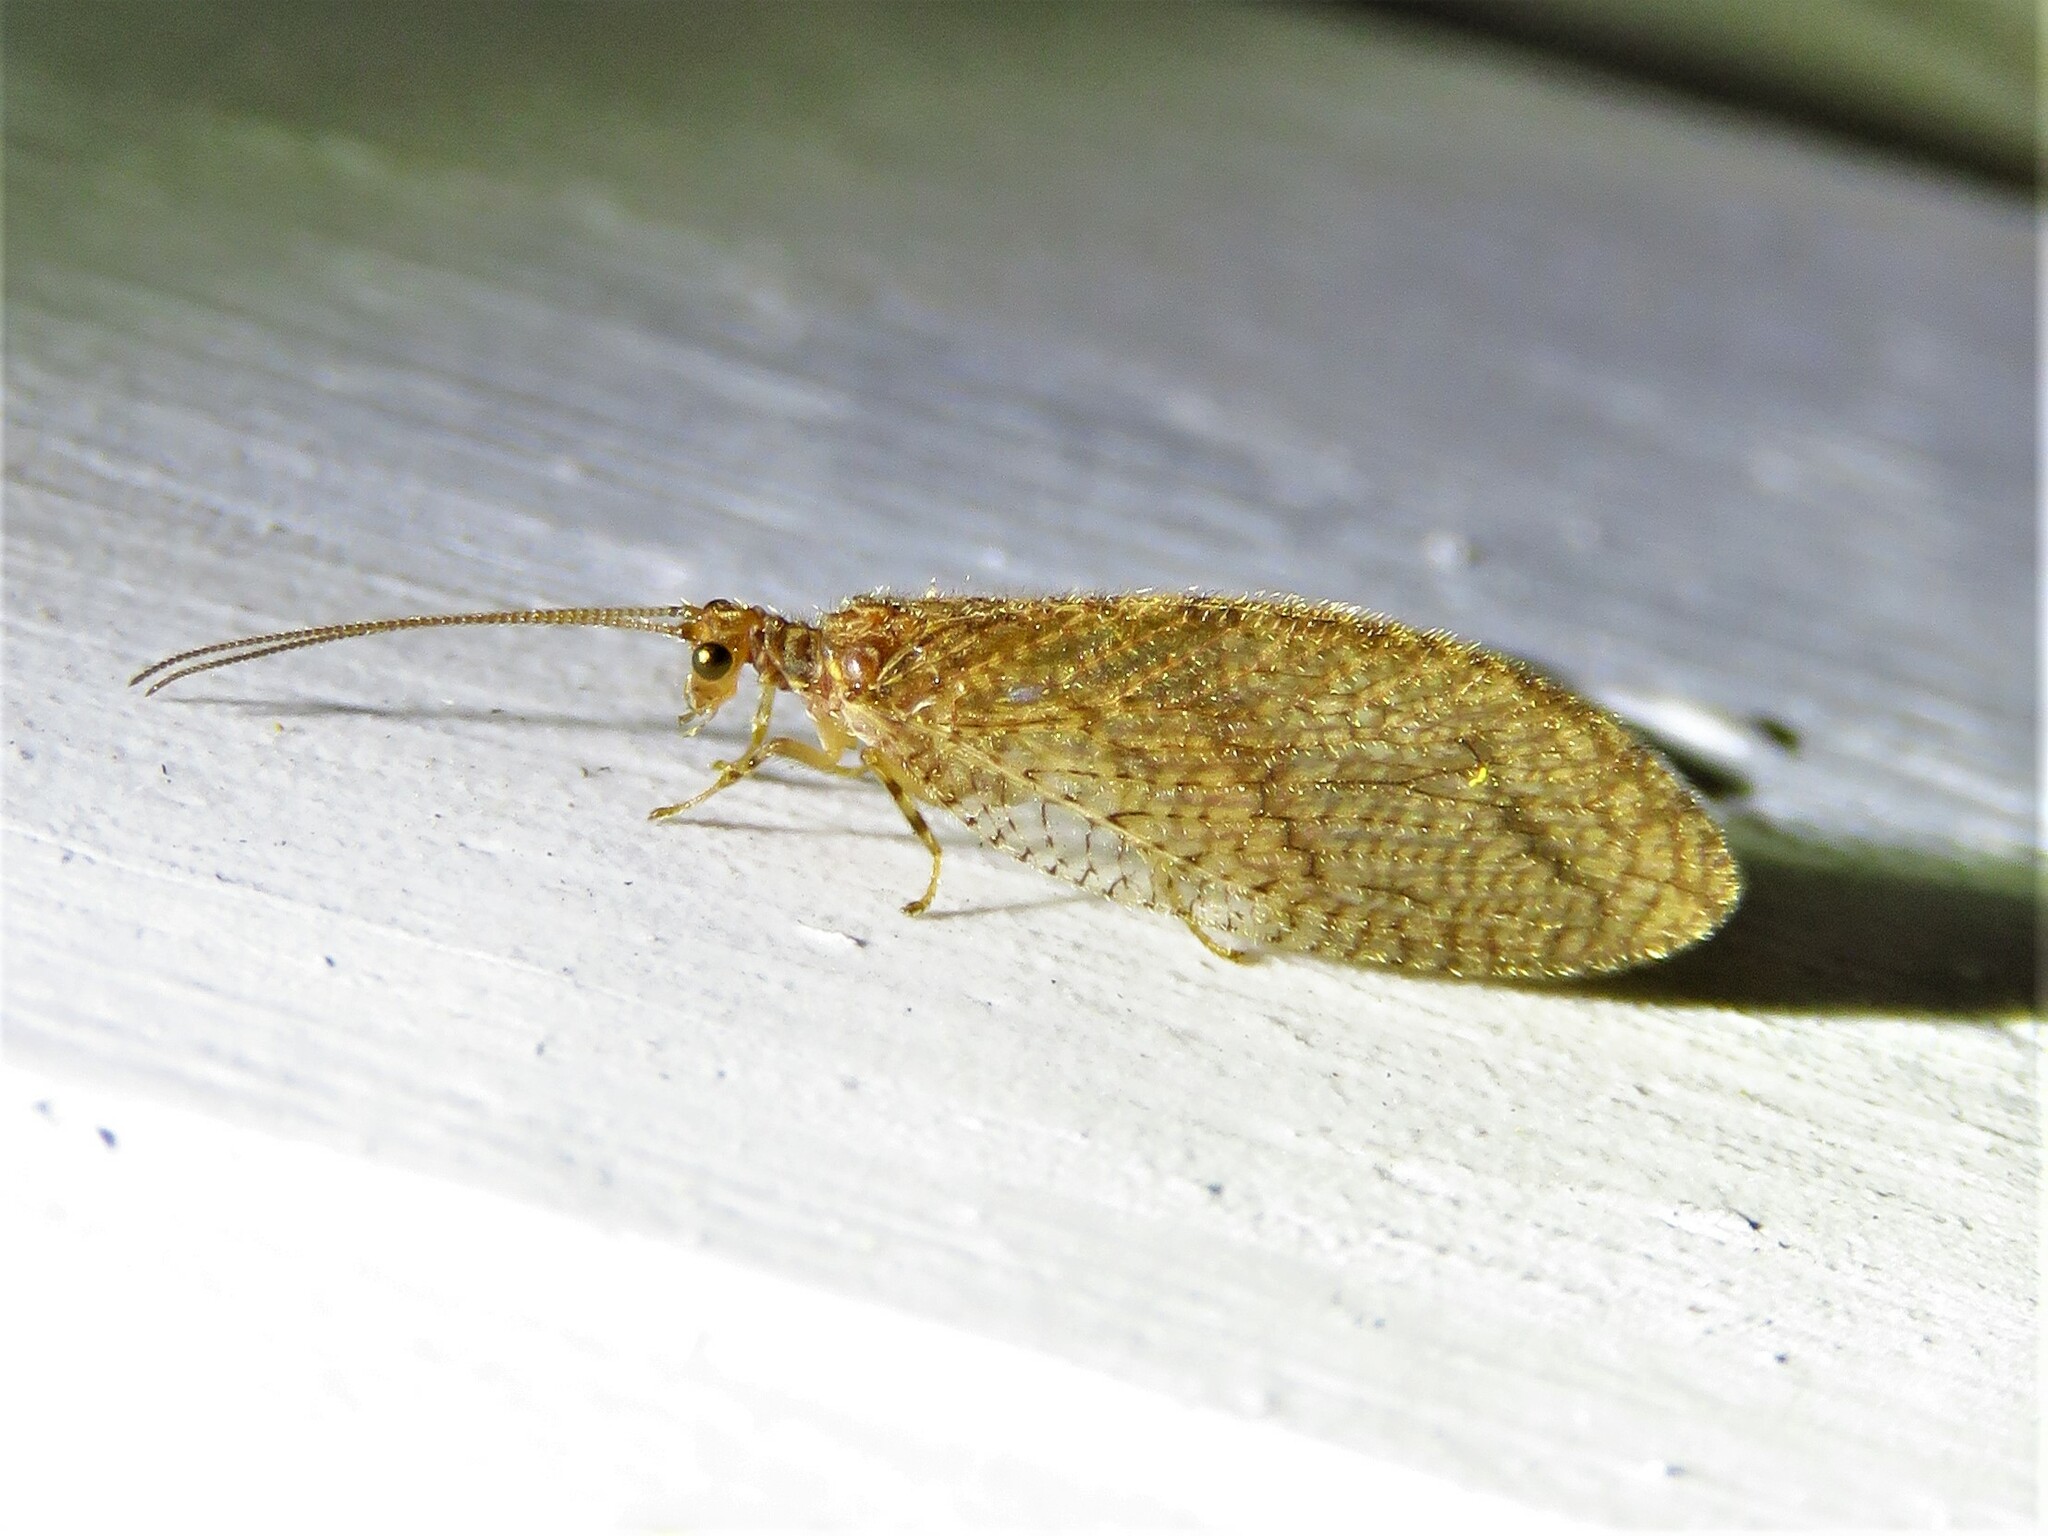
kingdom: Animalia
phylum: Arthropoda
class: Insecta
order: Neuroptera
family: Hemerobiidae
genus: Micromus
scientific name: Micromus posticus
